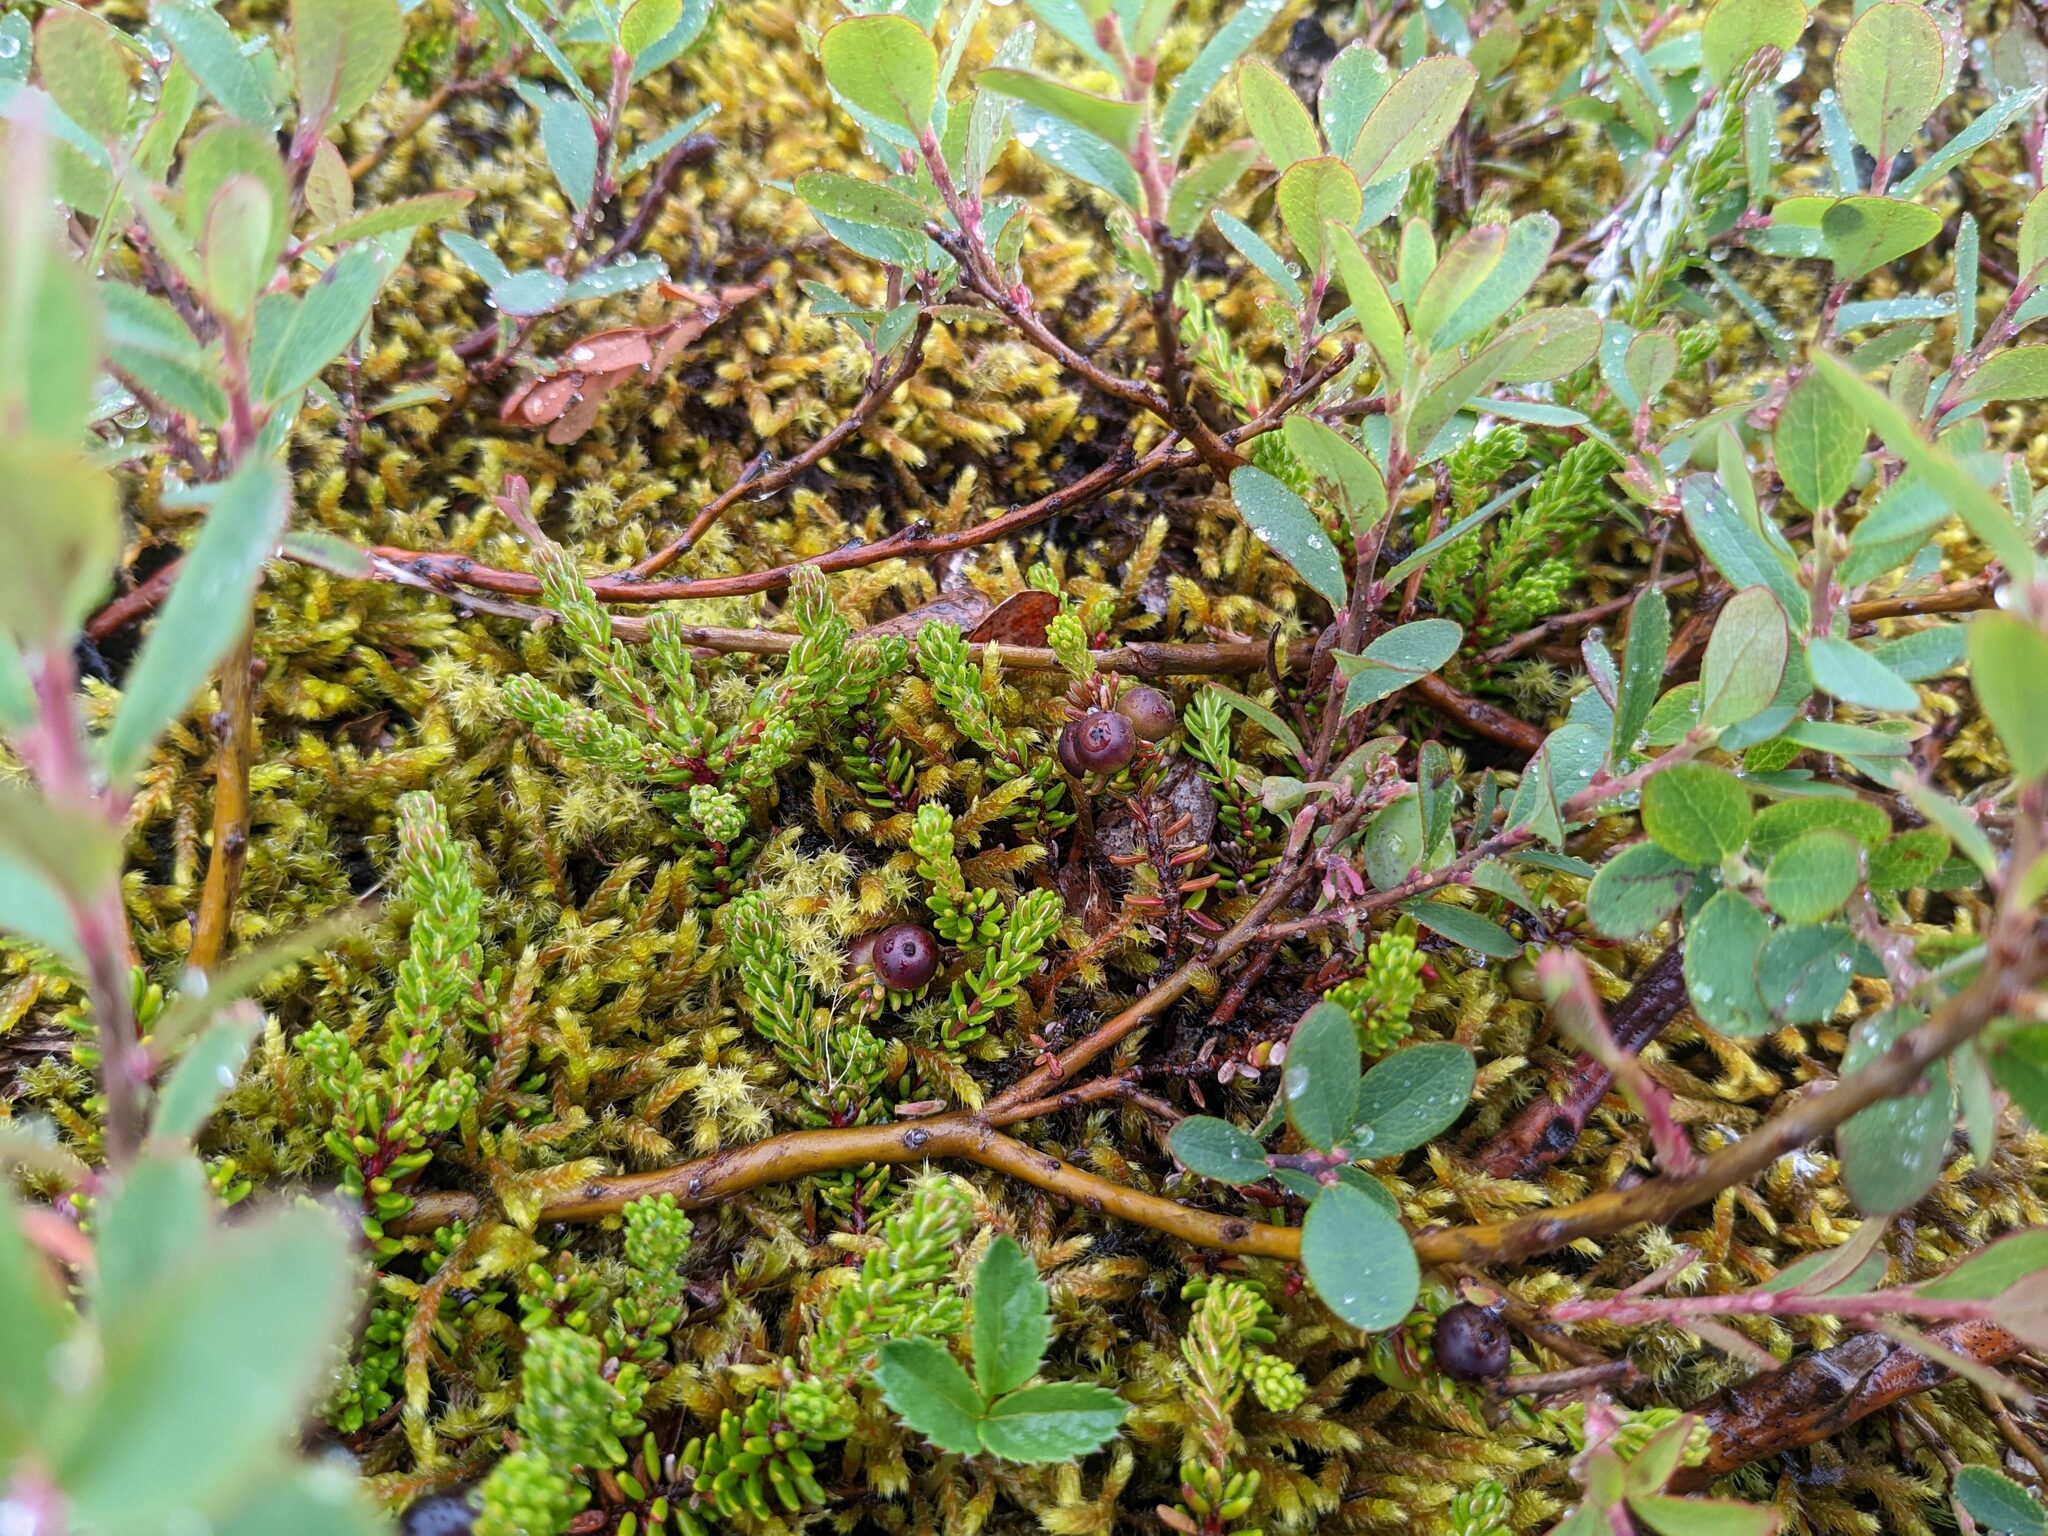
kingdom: Plantae
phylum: Tracheophyta
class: Magnoliopsida
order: Ericales
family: Ericaceae
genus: Empetrum
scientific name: Empetrum nigrum
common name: Black crowberry
